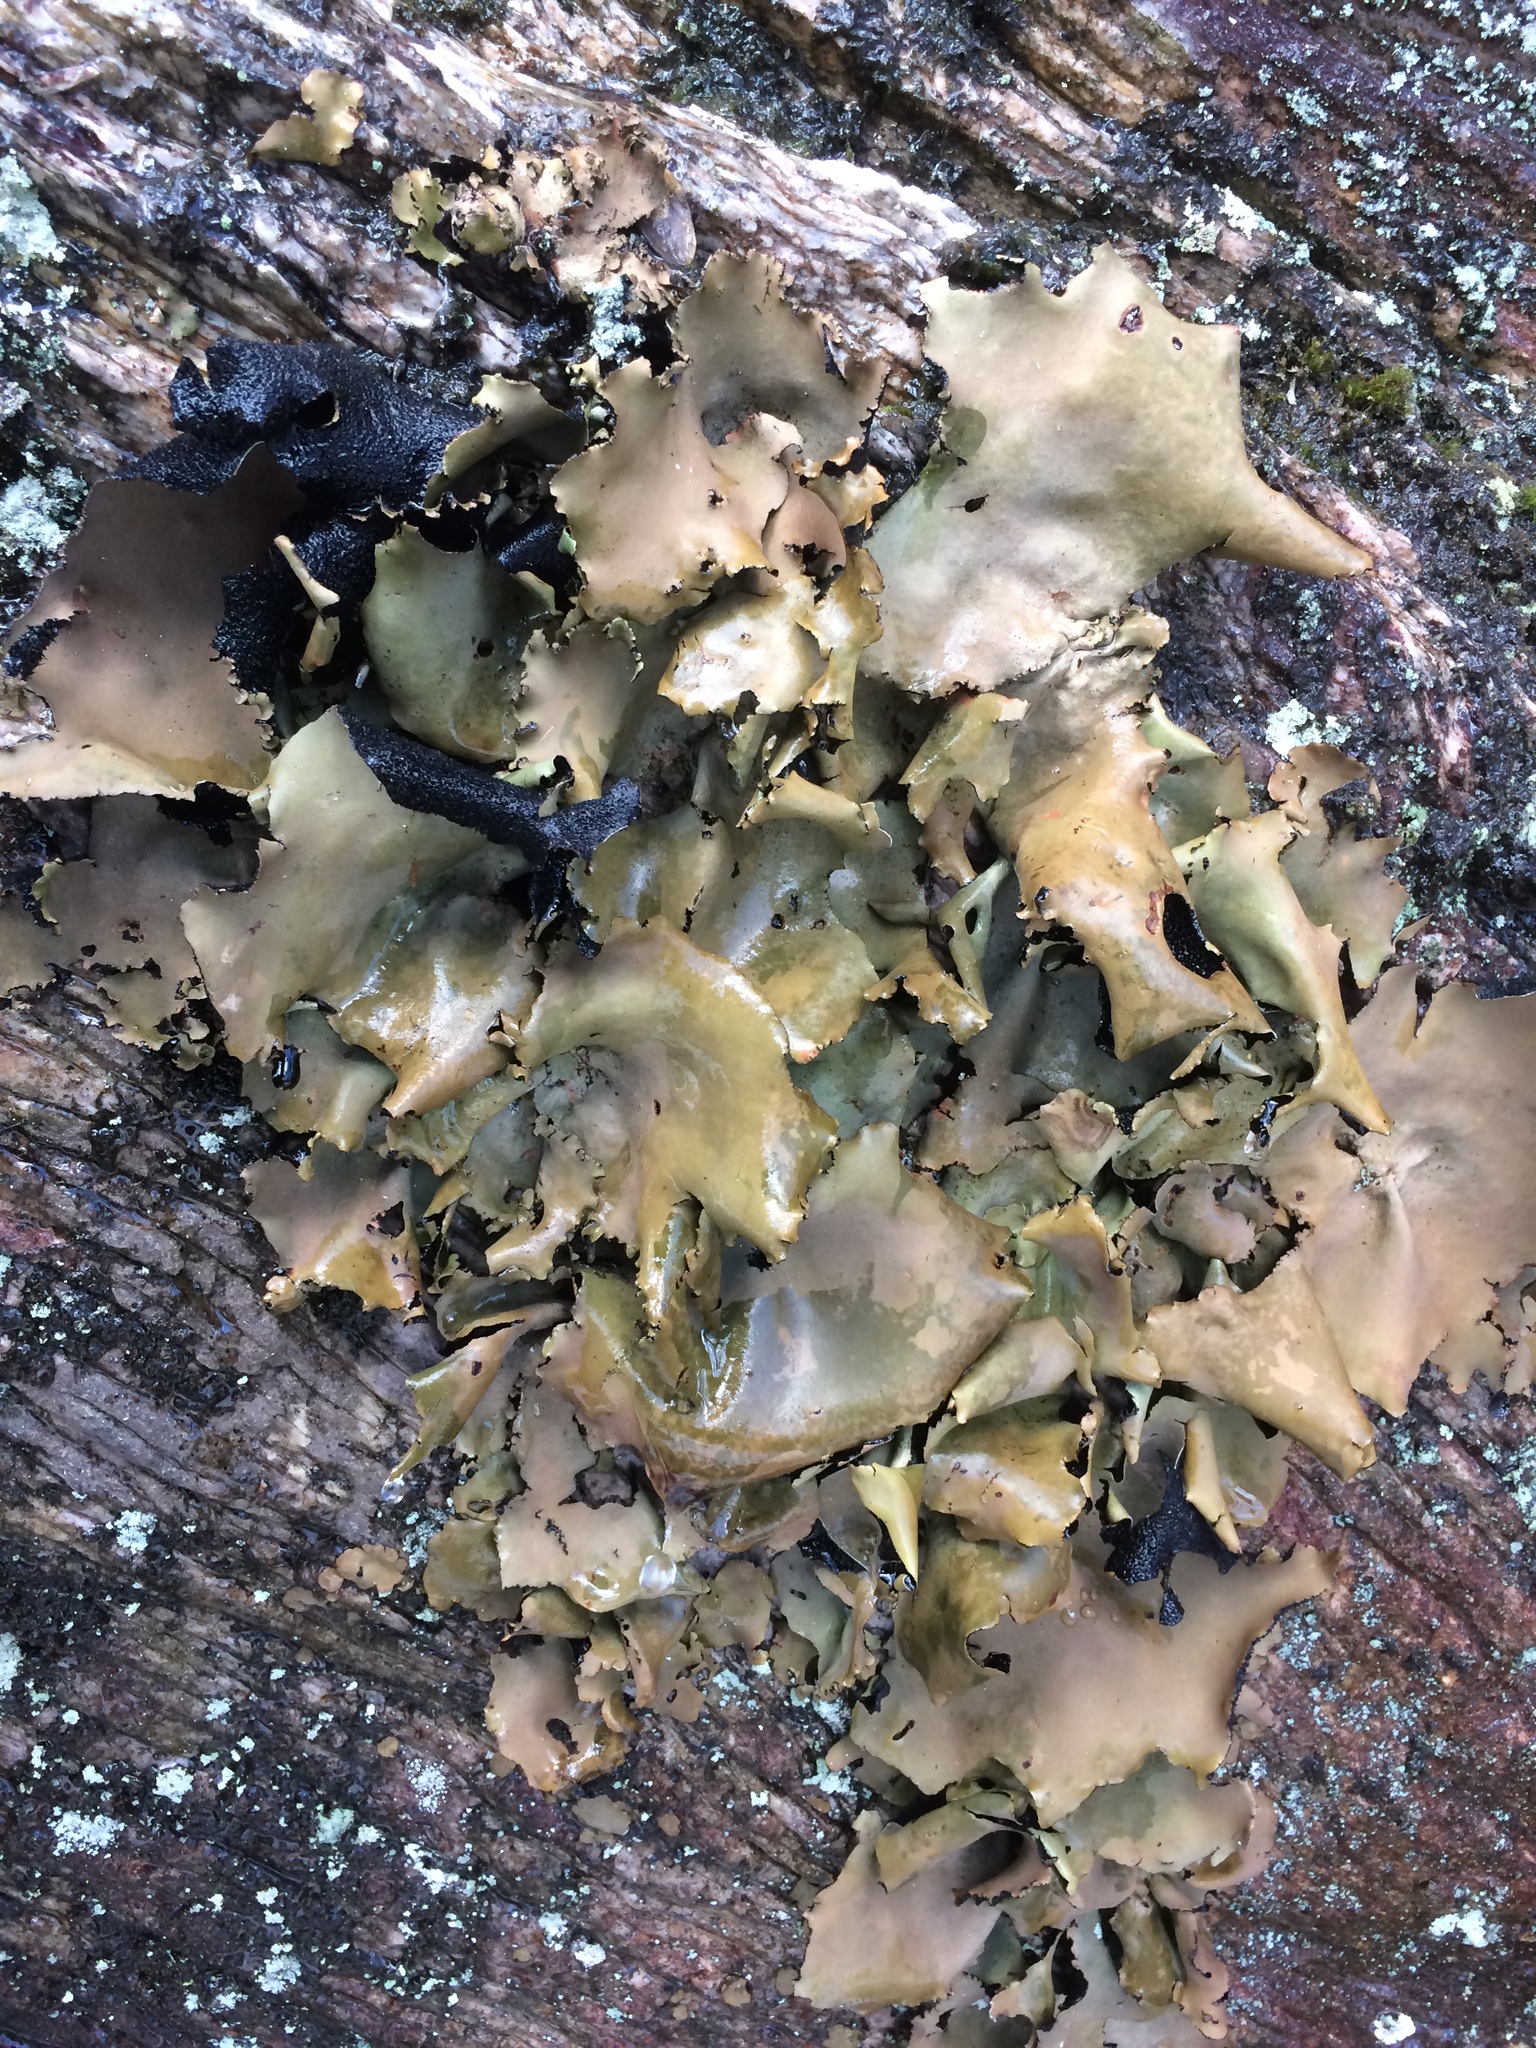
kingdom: Fungi
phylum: Ascomycota
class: Lecanoromycetes
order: Umbilicariales
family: Umbilicariaceae
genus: Umbilicaria
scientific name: Umbilicaria mammulata
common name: Smooth rock tripe
